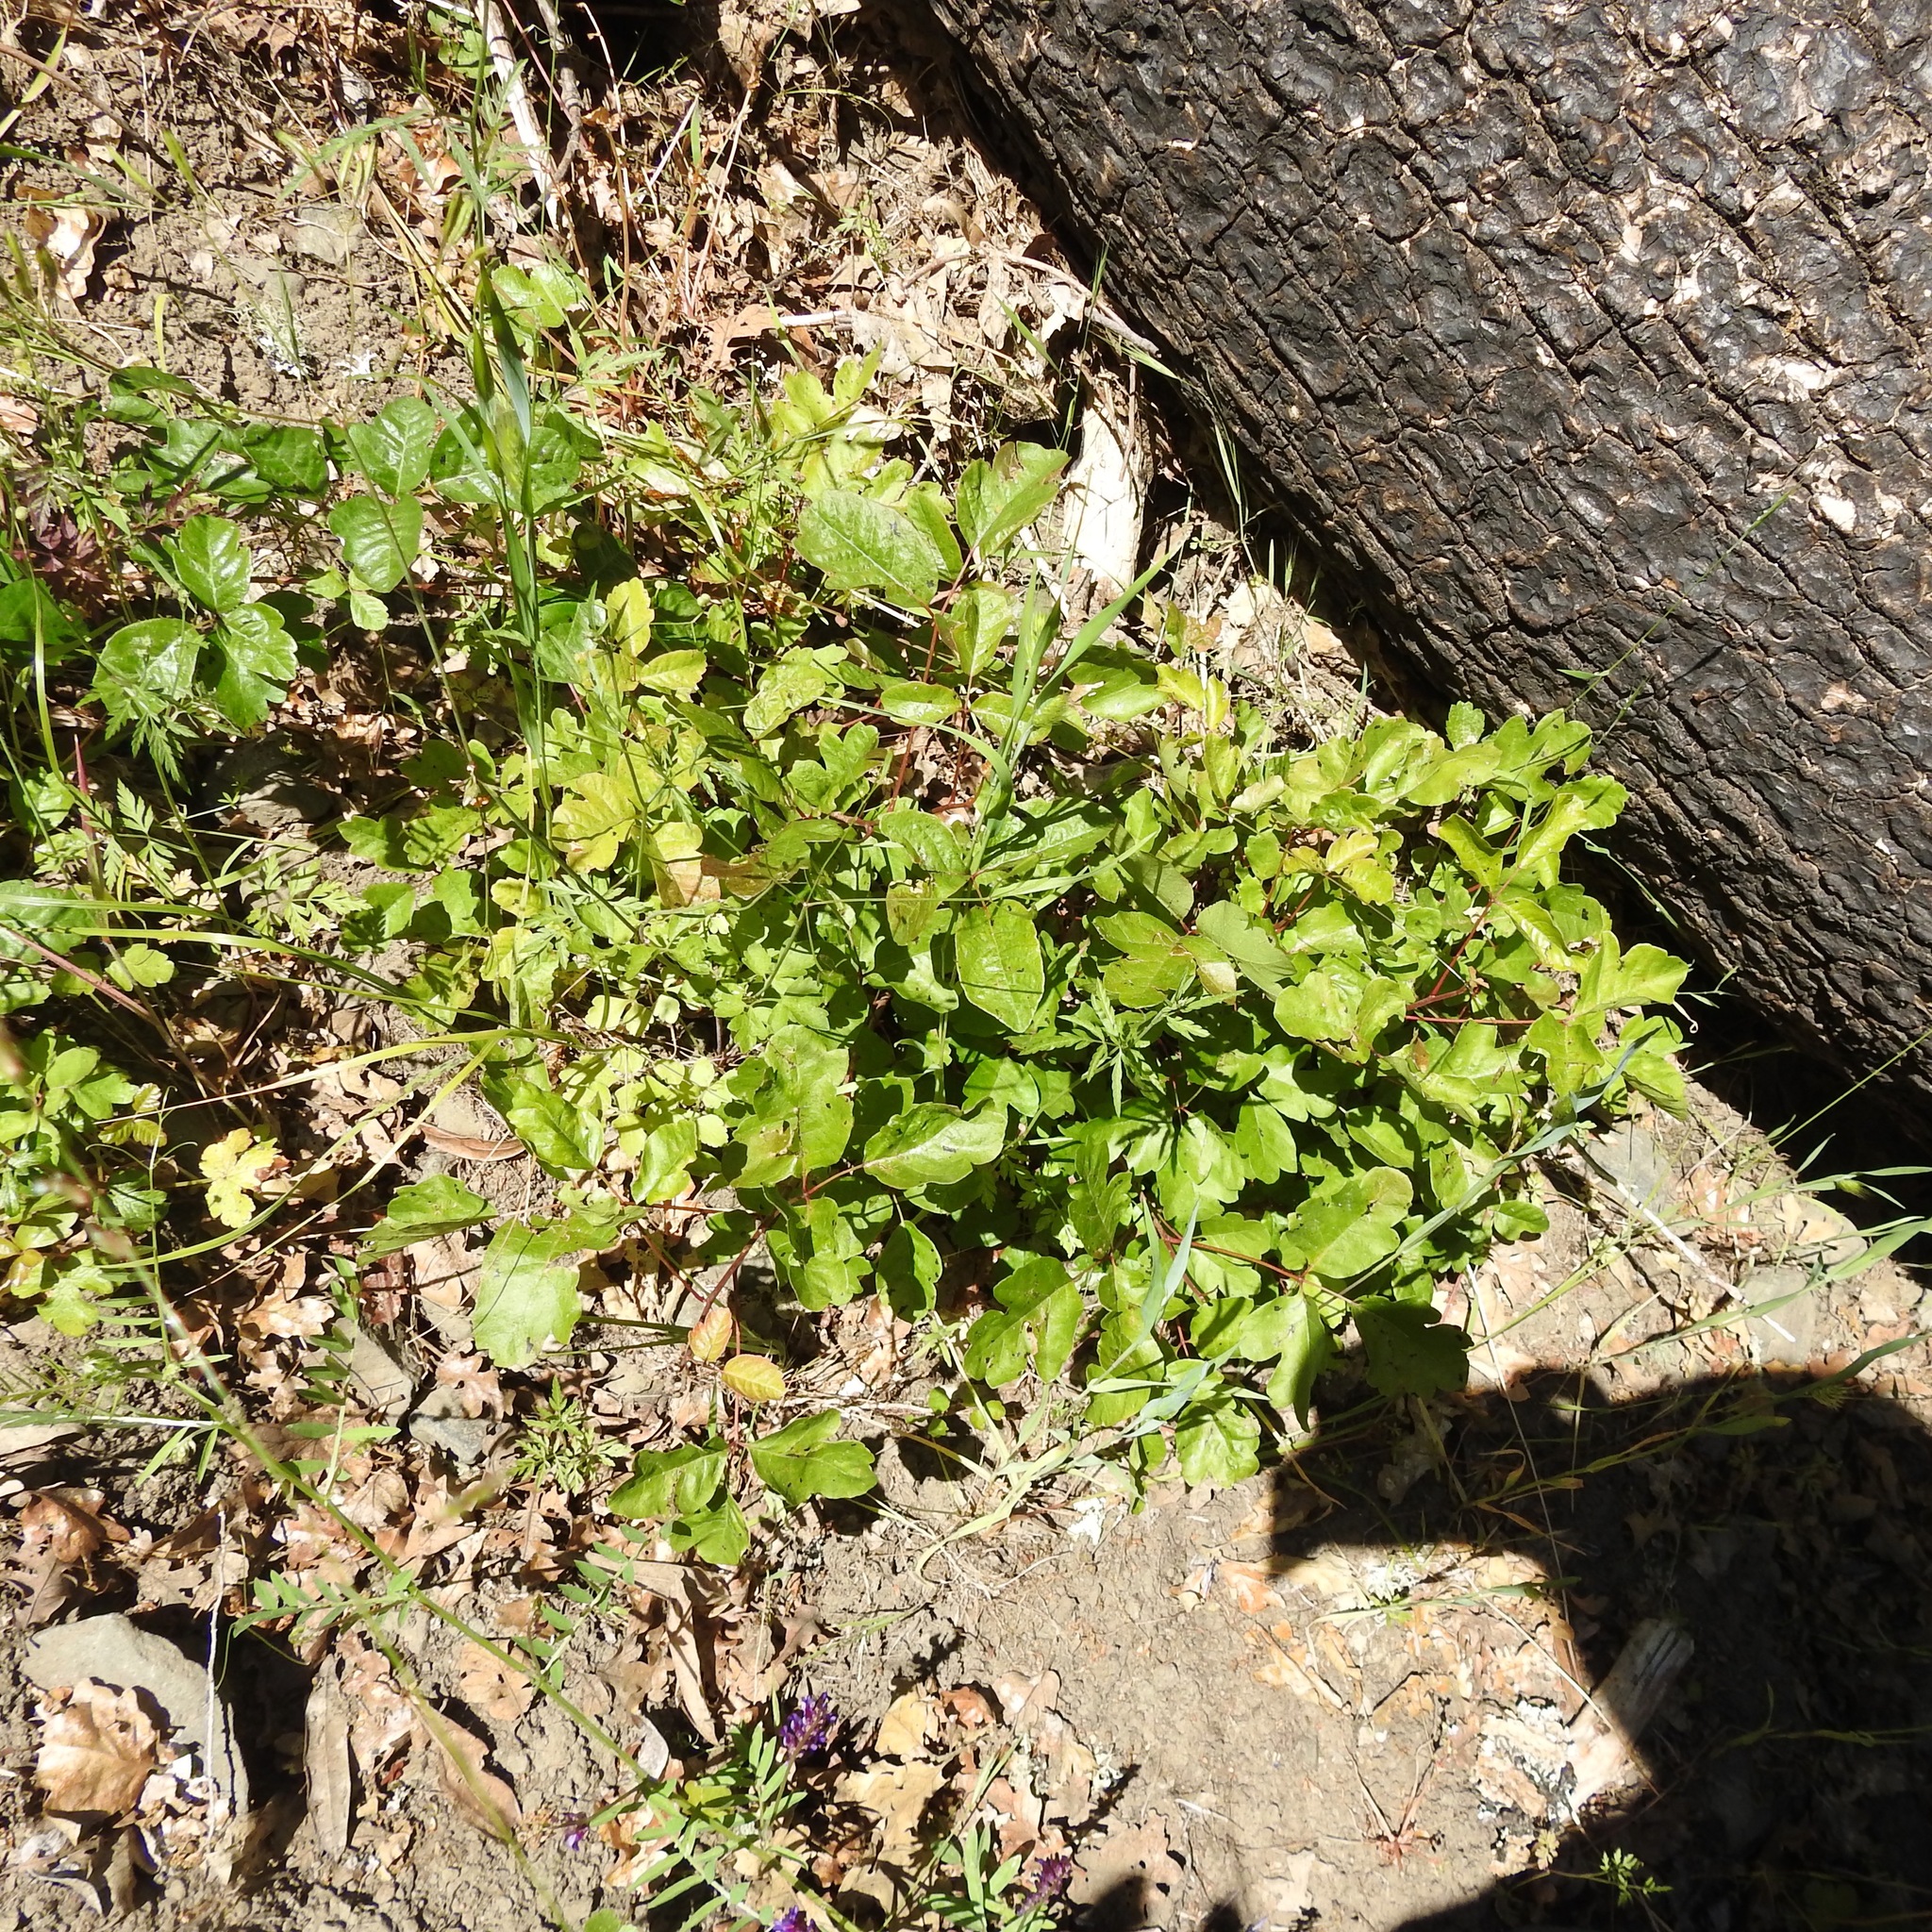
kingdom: Plantae
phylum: Tracheophyta
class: Magnoliopsida
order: Sapindales
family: Anacardiaceae
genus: Toxicodendron
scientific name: Toxicodendron diversilobum
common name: Pacific poison-oak
